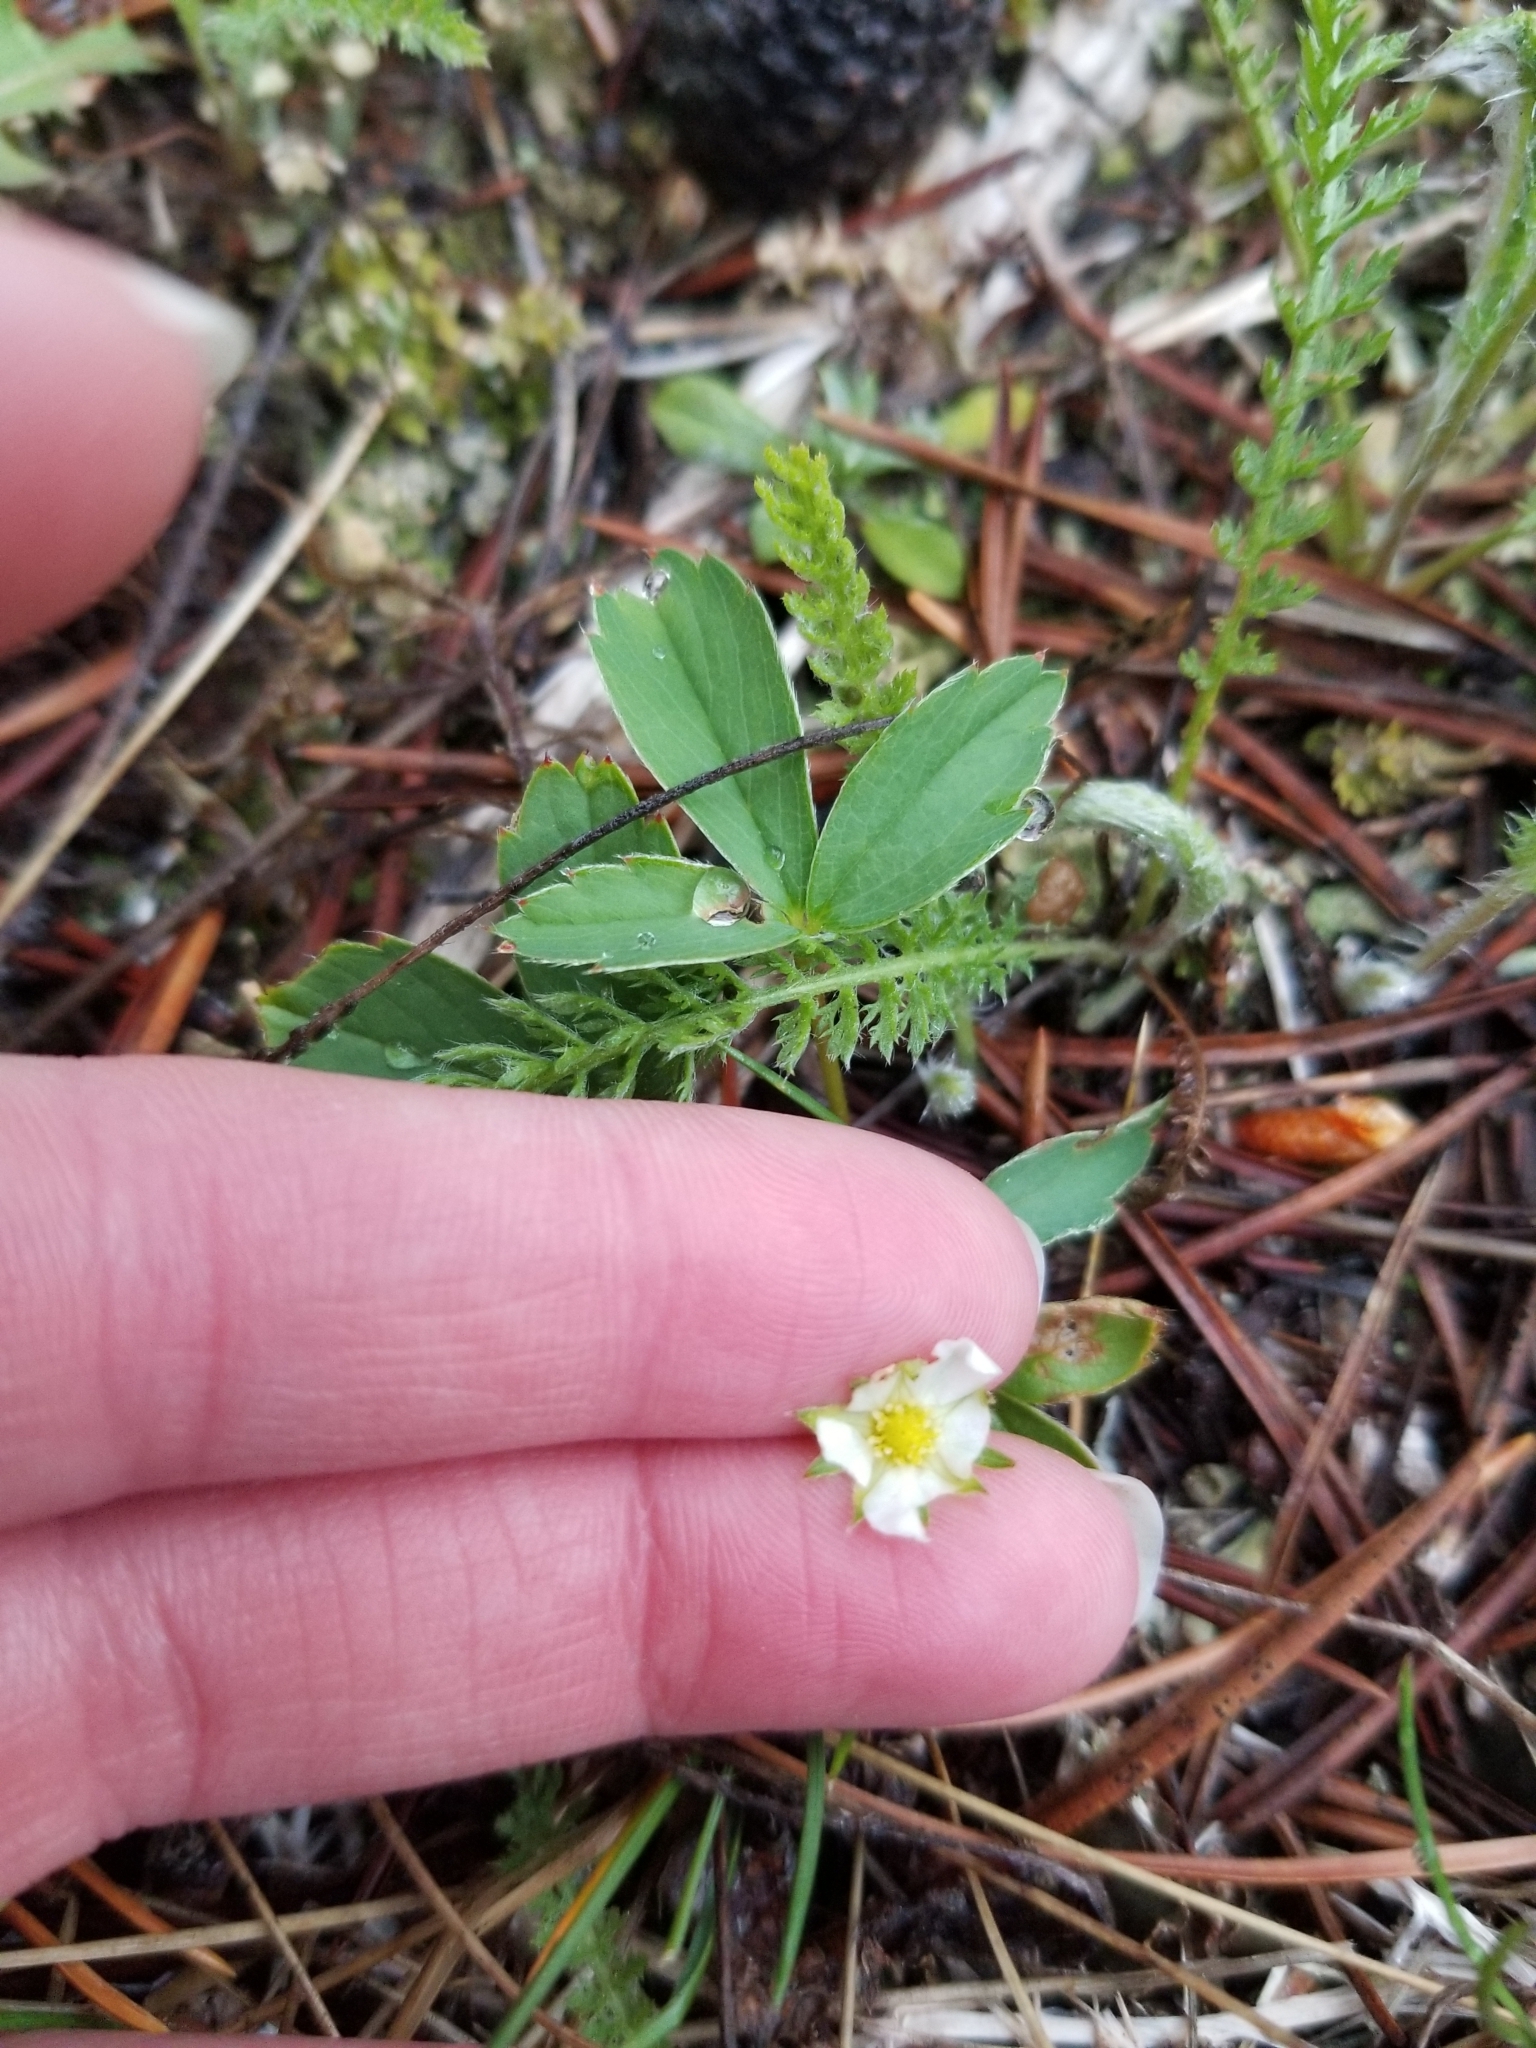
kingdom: Plantae
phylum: Tracheophyta
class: Magnoliopsida
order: Rosales
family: Rosaceae
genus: Fragaria
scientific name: Fragaria virginiana
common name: Thickleaved wild strawberry
